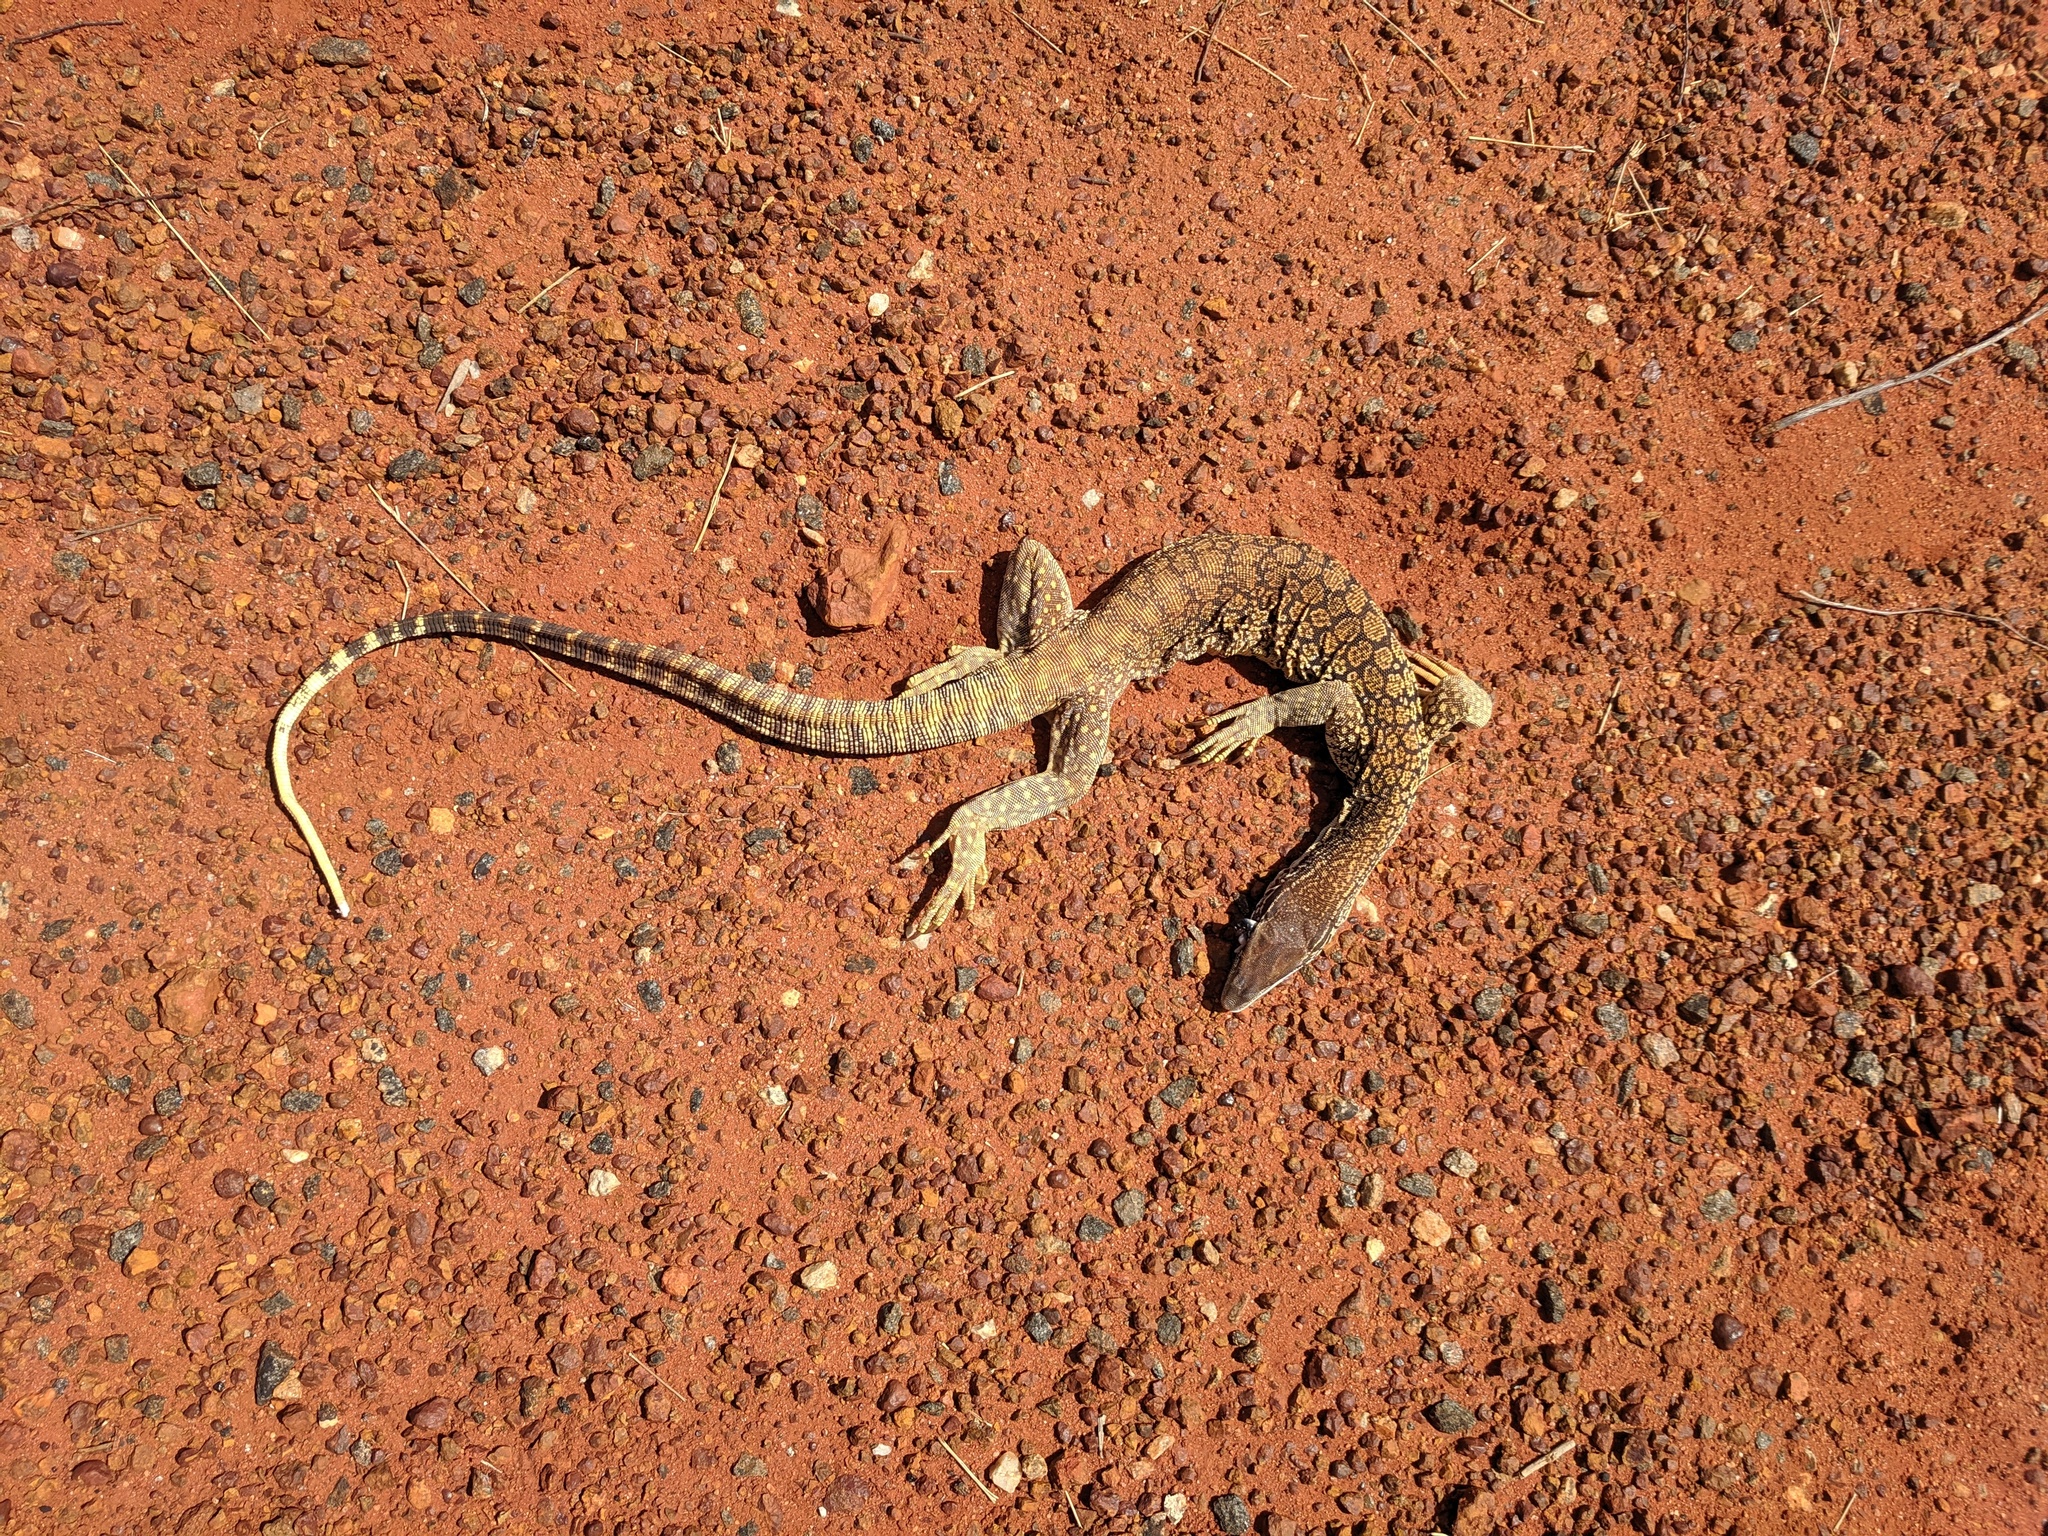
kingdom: Animalia
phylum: Chordata
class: Squamata
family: Varanidae
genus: Varanus
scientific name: Varanus gouldii
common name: Gould's goanna
